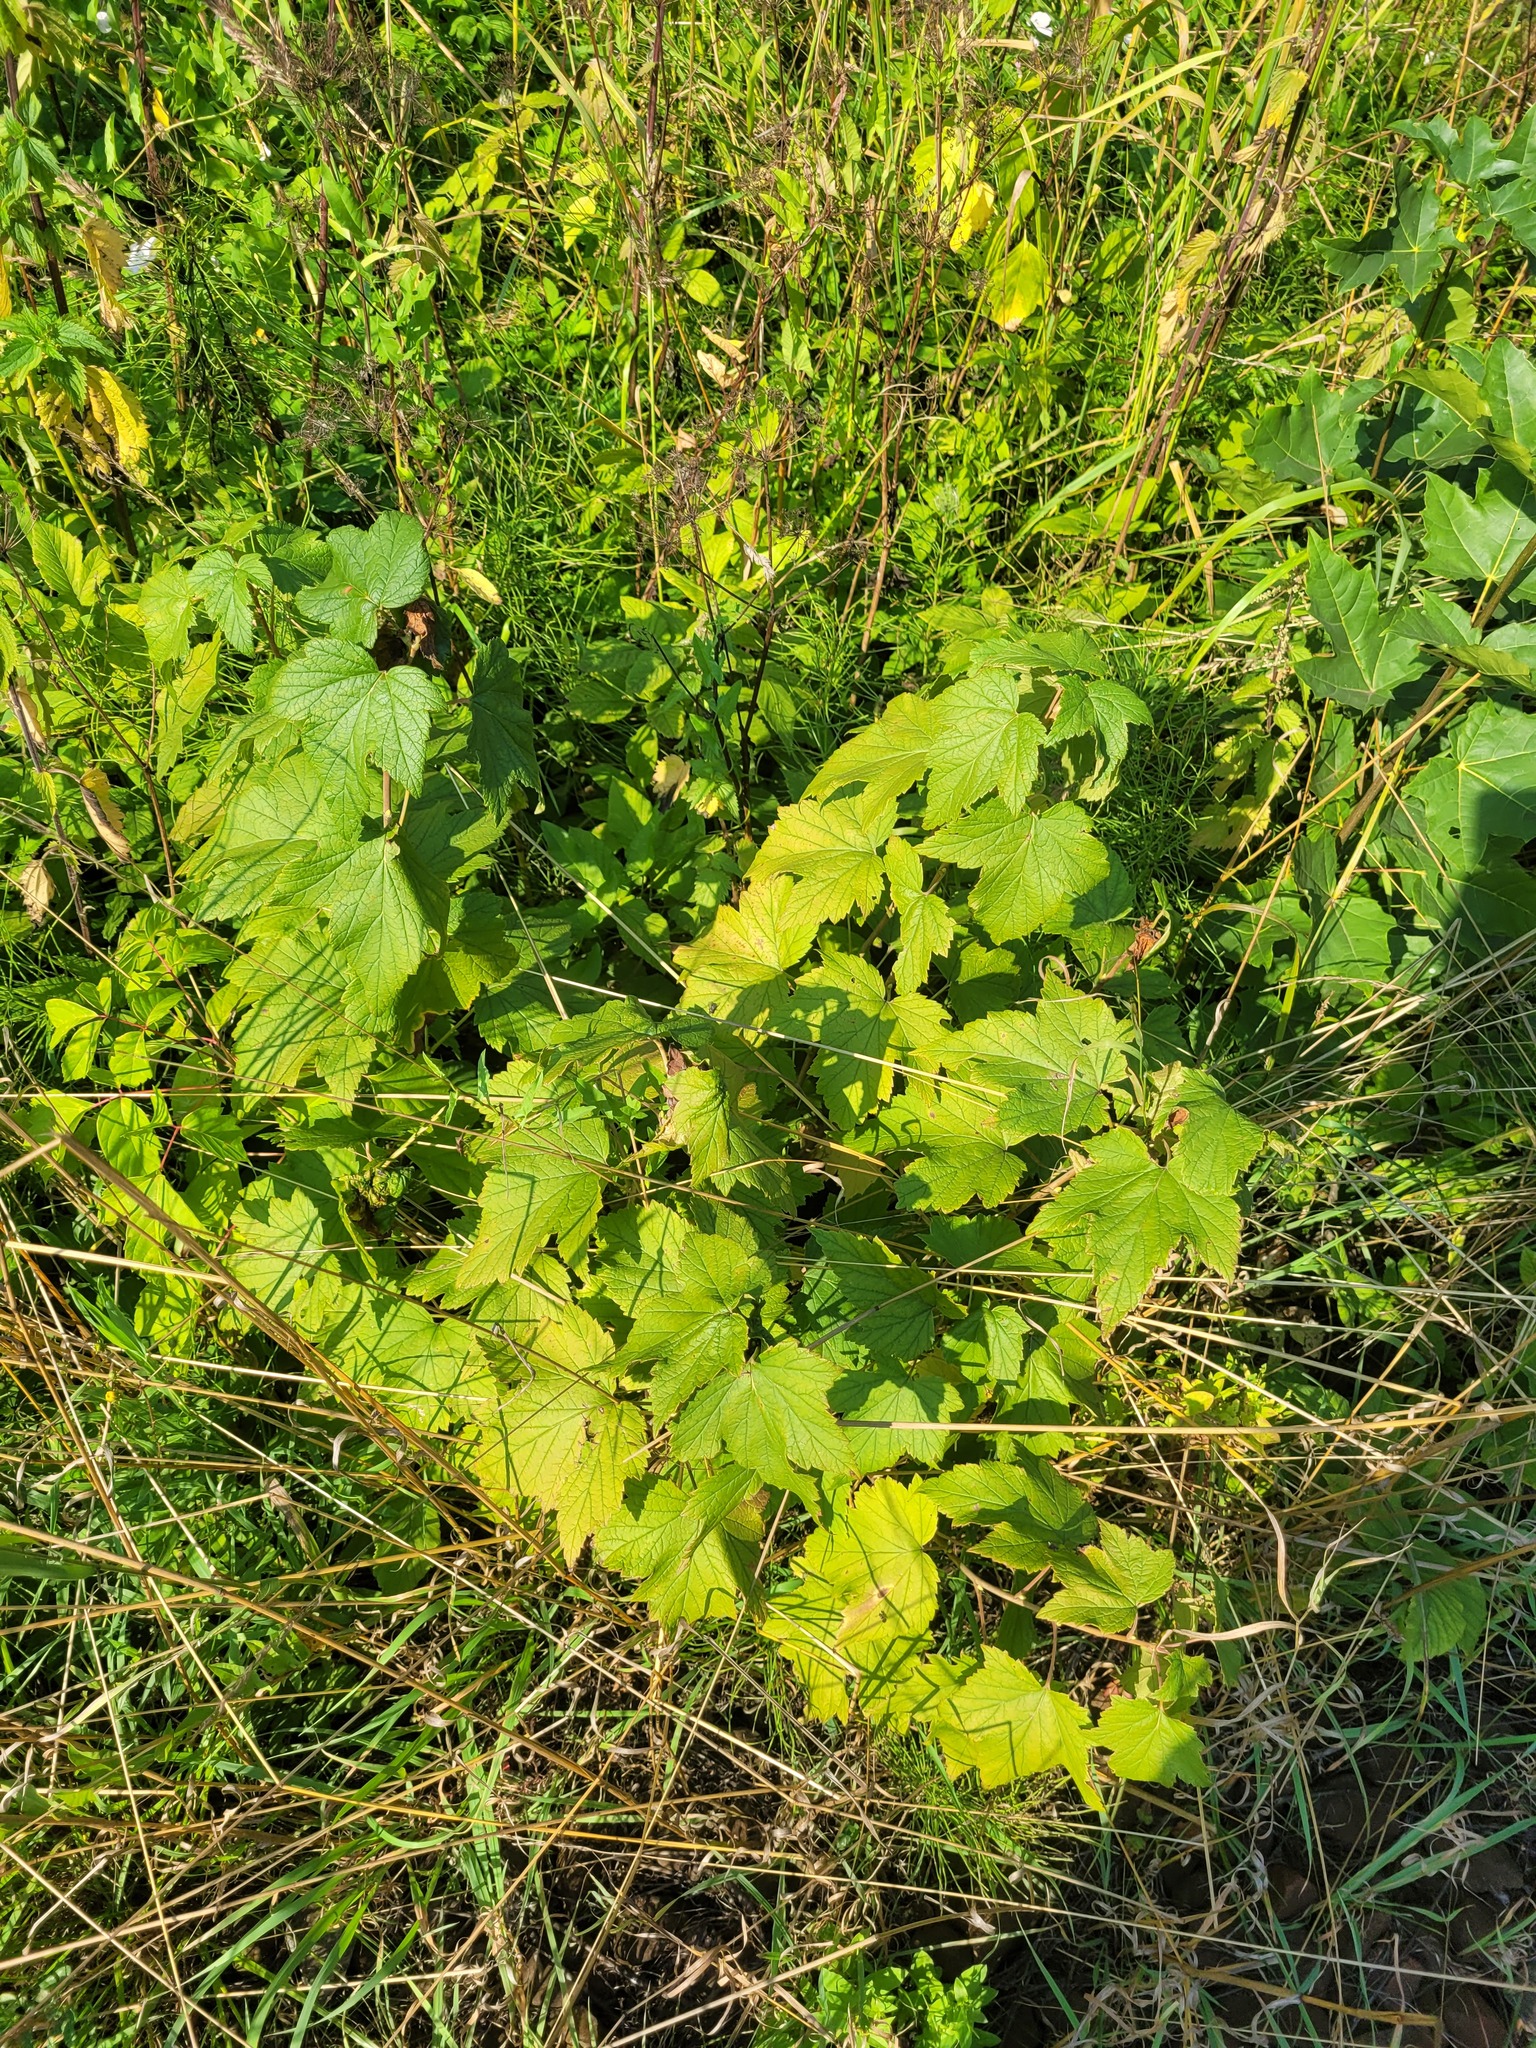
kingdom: Plantae
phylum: Tracheophyta
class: Magnoliopsida
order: Saxifragales
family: Grossulariaceae
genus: Ribes
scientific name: Ribes nigrum
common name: Black currant
